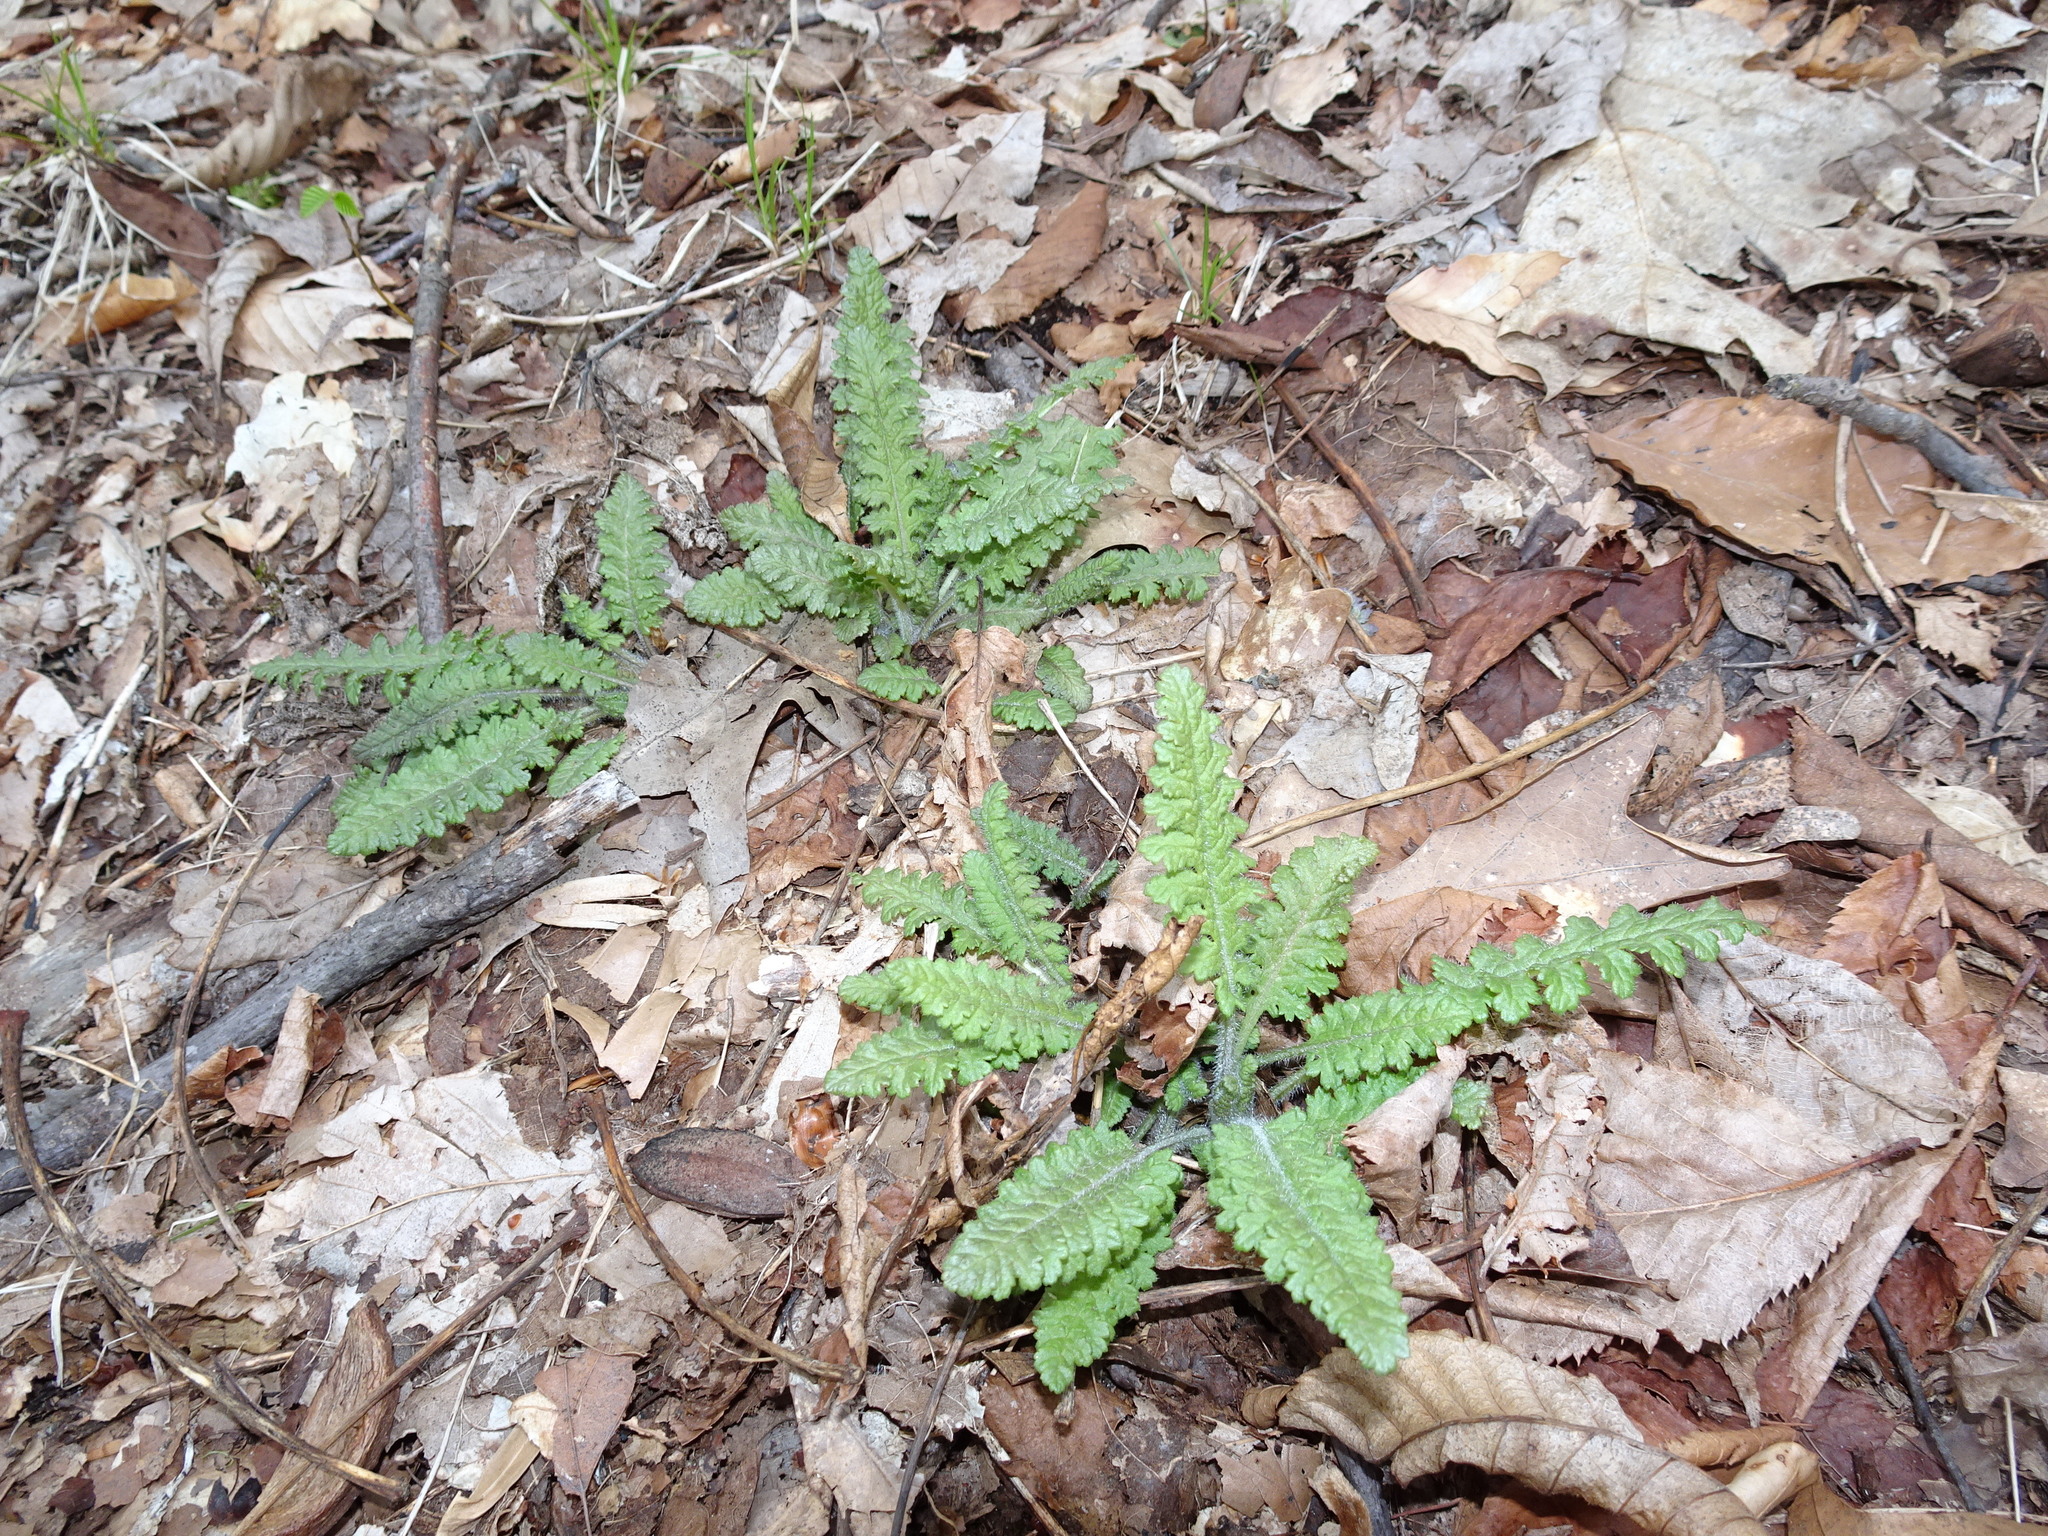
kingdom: Plantae
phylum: Tracheophyta
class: Magnoliopsida
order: Lamiales
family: Orobanchaceae
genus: Pedicularis
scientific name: Pedicularis canadensis
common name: Early lousewort
